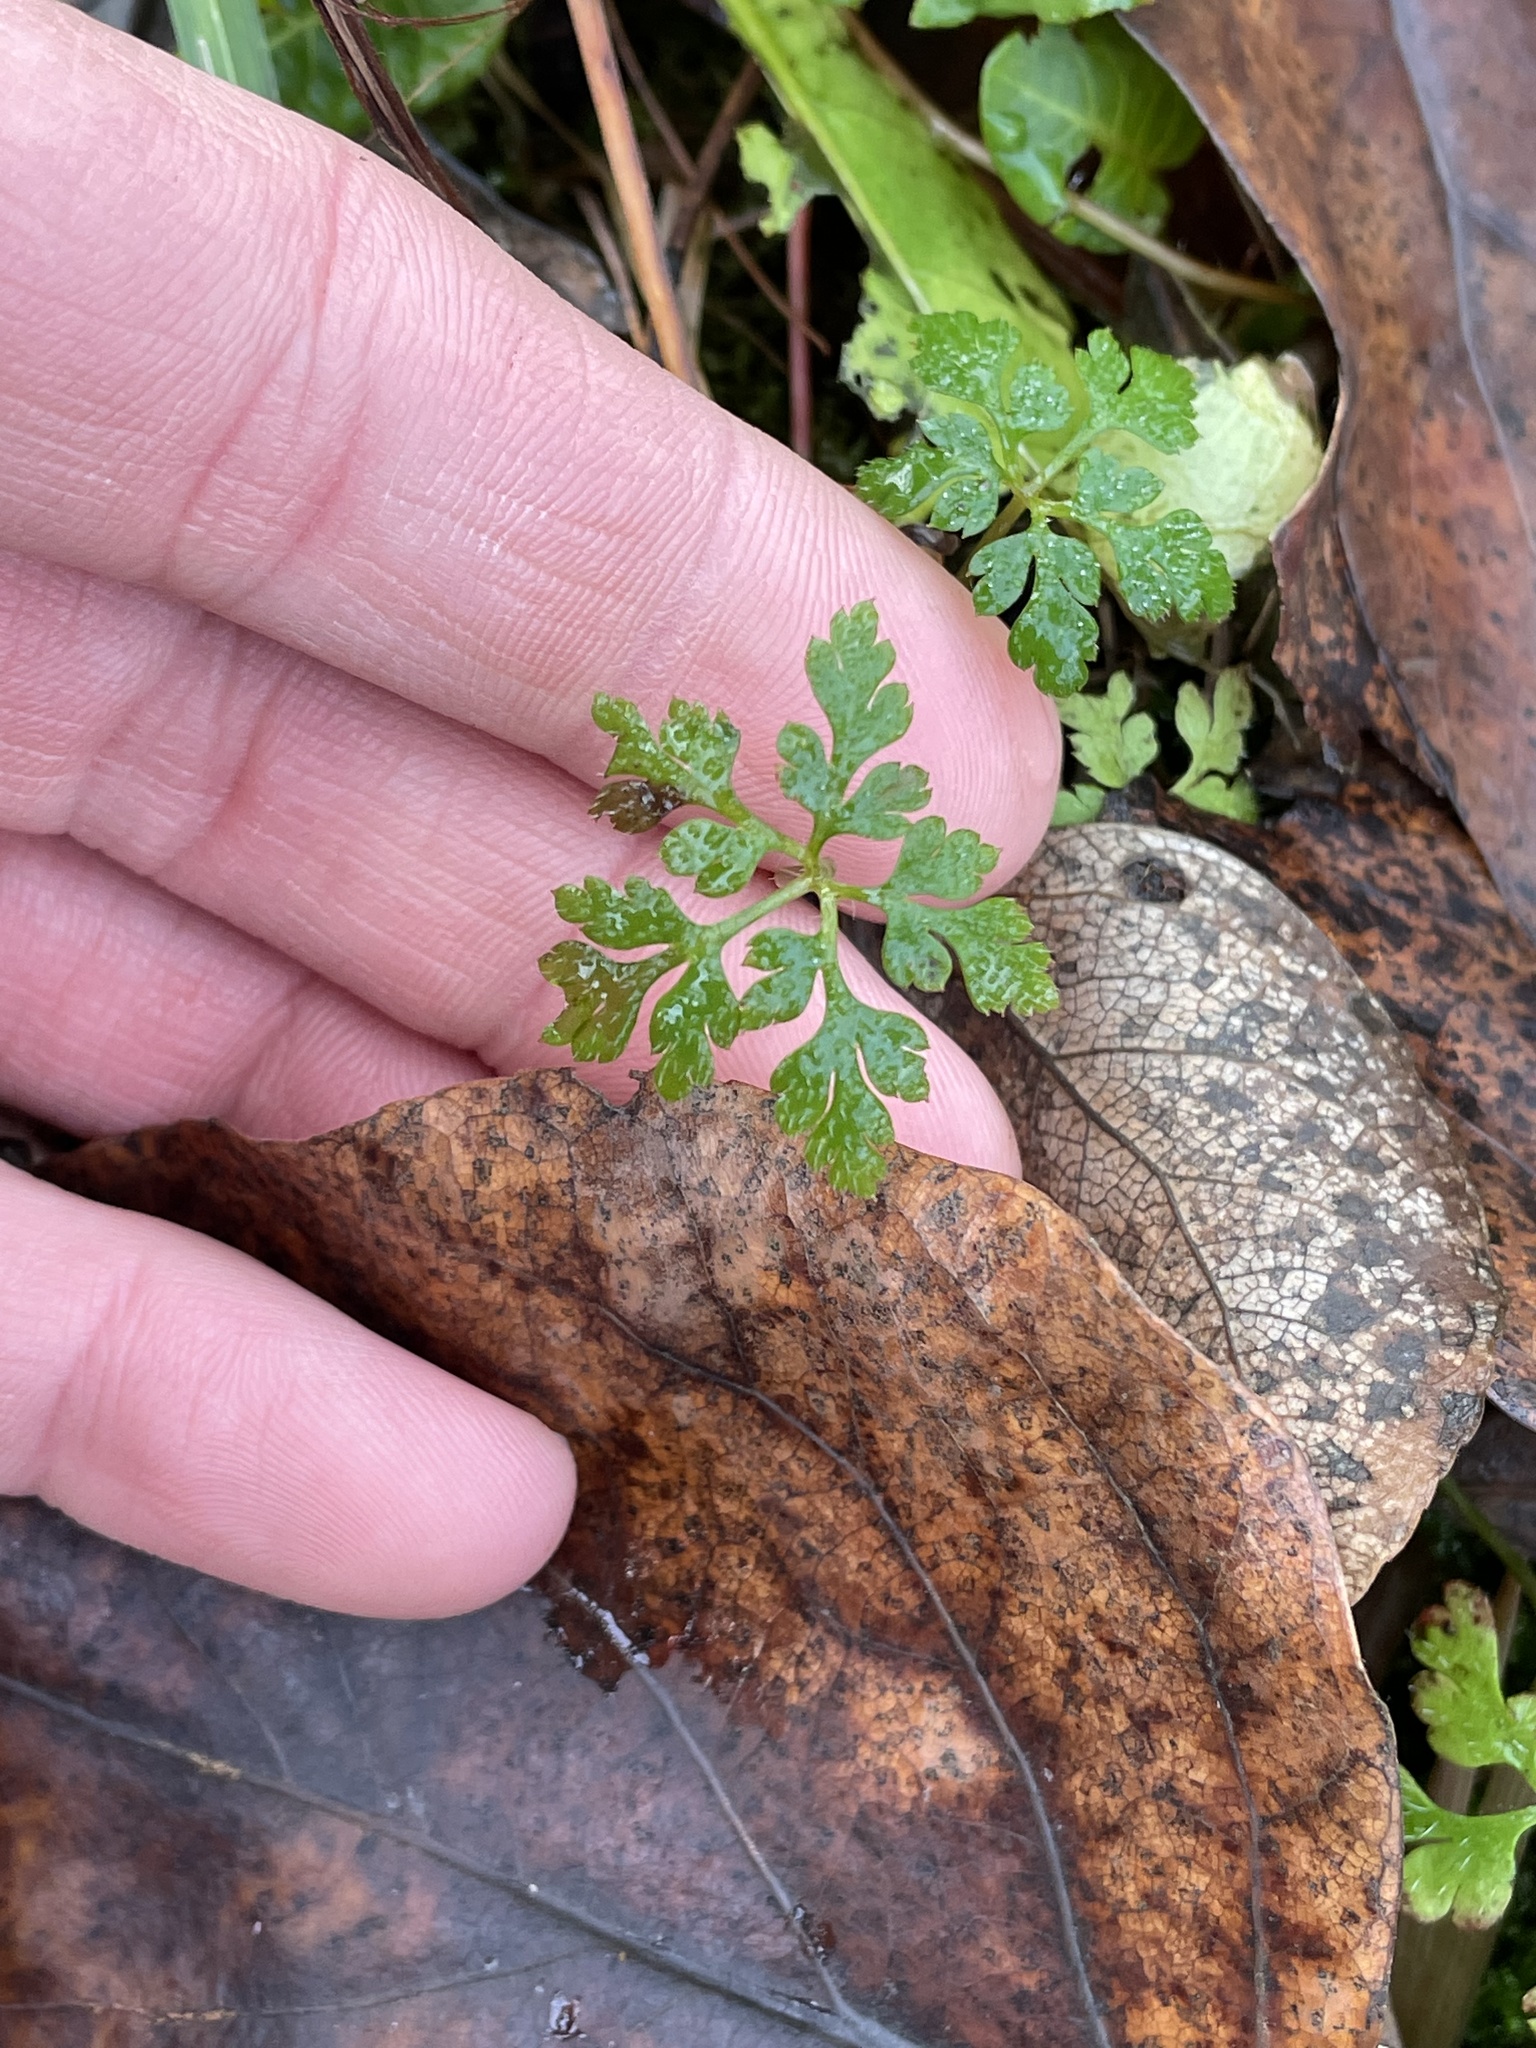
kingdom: Plantae
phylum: Tracheophyta
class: Magnoliopsida
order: Geraniales
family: Geraniaceae
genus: Geranium
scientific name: Geranium robertianum
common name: Herb-robert
